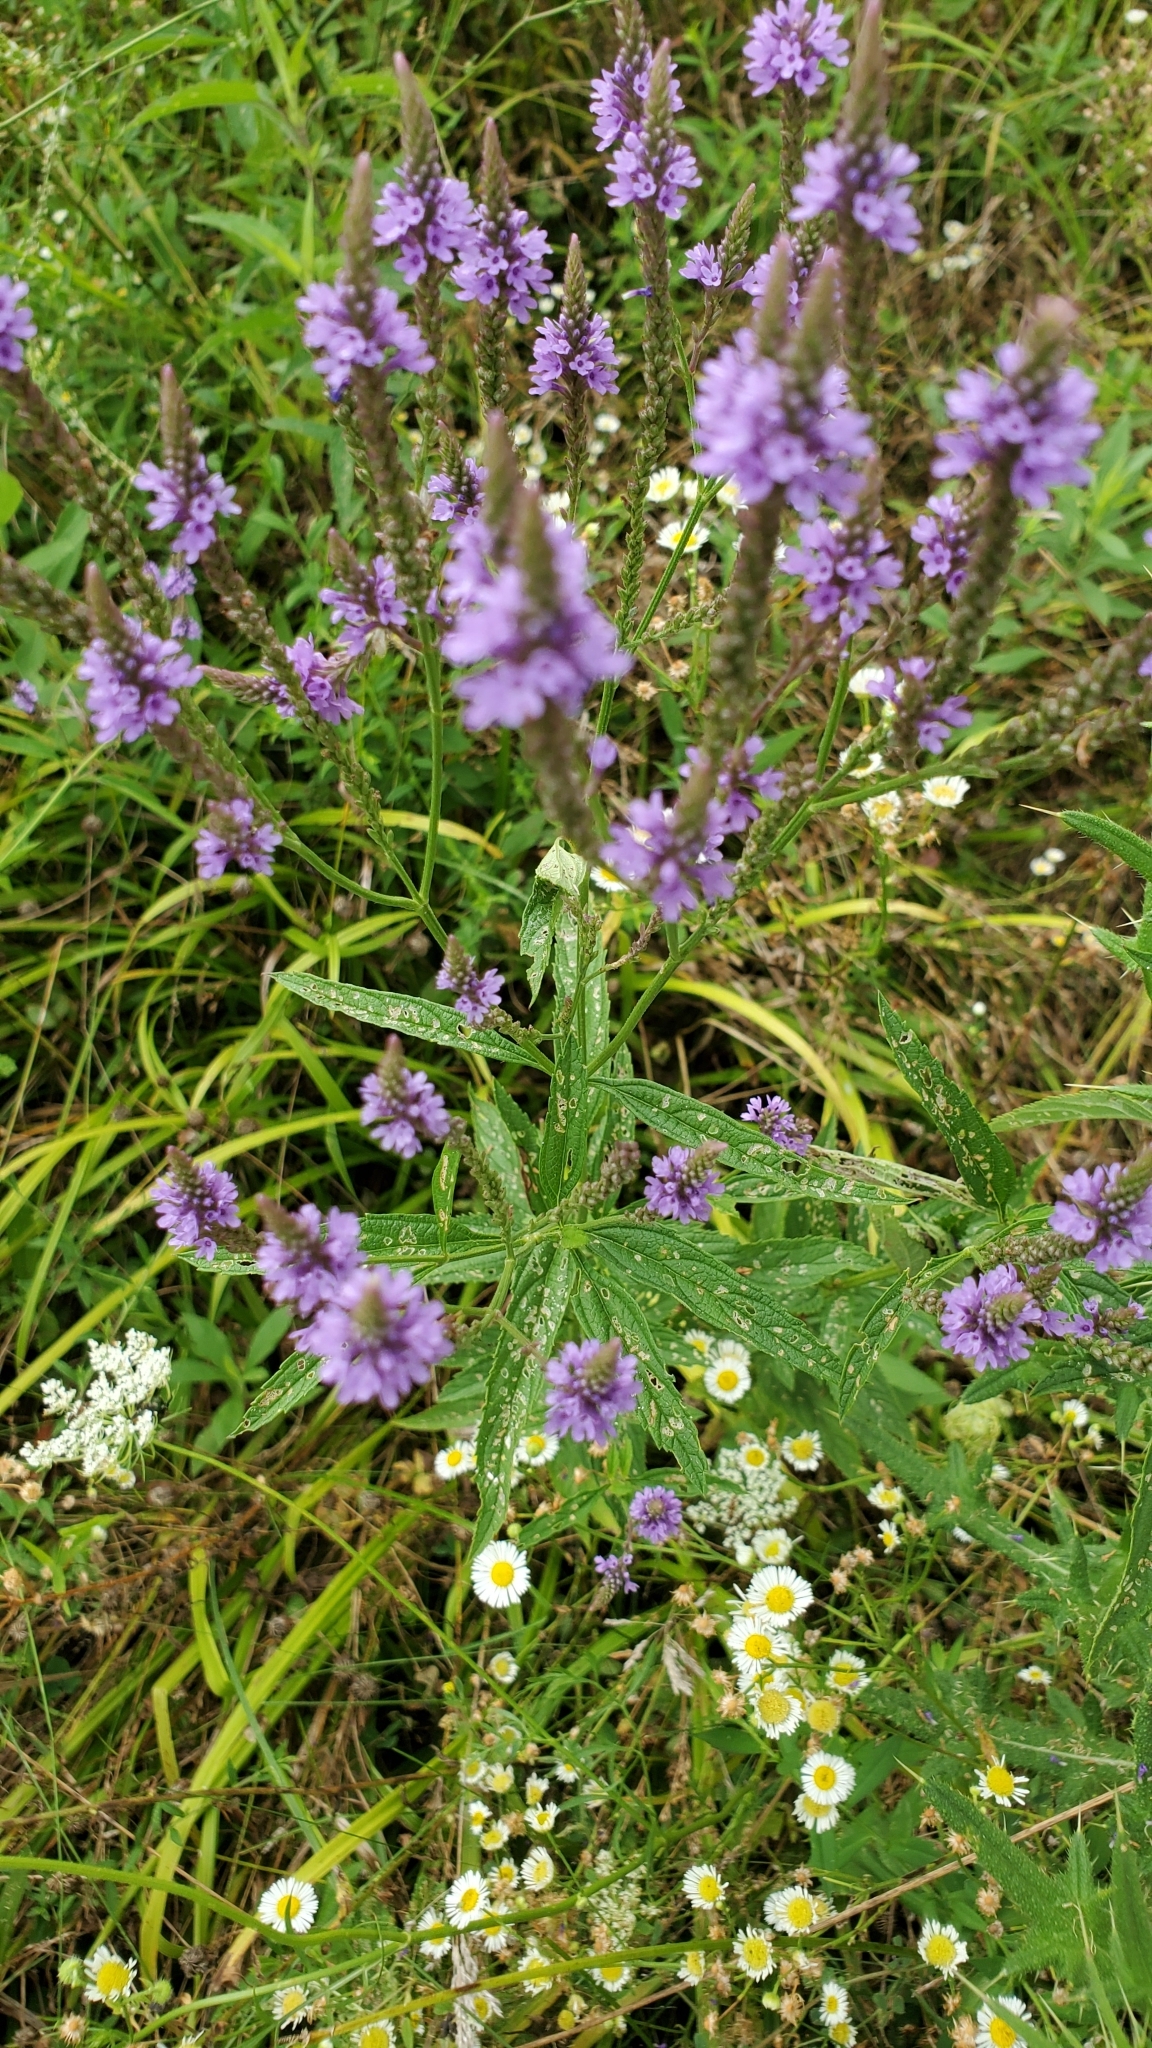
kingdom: Plantae
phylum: Tracheophyta
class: Magnoliopsida
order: Lamiales
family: Verbenaceae
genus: Verbena
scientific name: Verbena hastata
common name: American blue vervain
